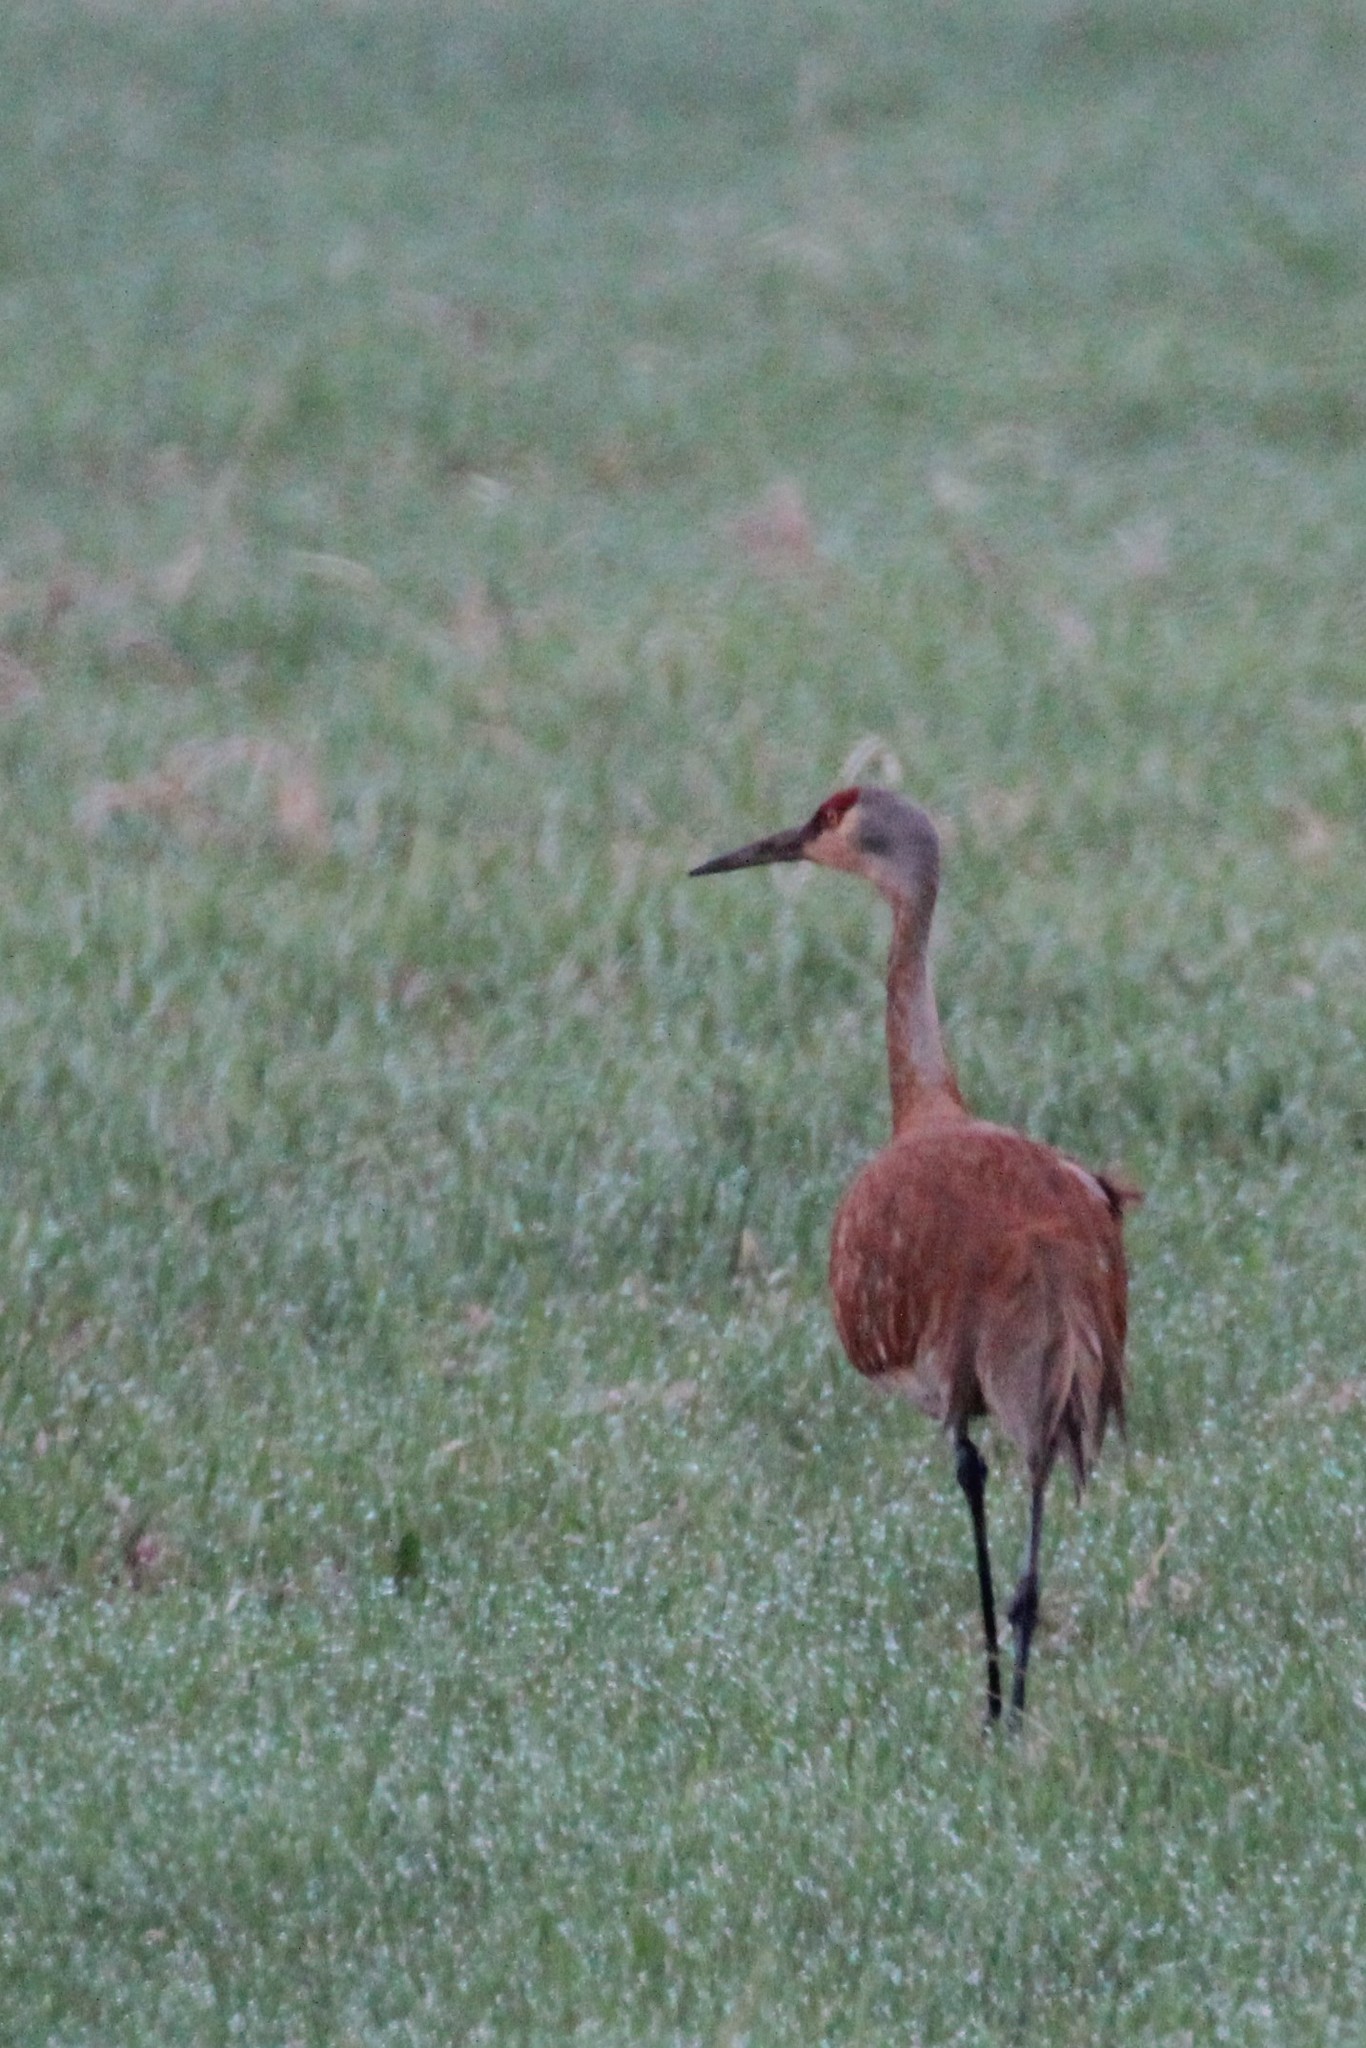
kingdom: Animalia
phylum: Chordata
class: Aves
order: Gruiformes
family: Gruidae
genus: Grus
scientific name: Grus canadensis
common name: Sandhill crane
